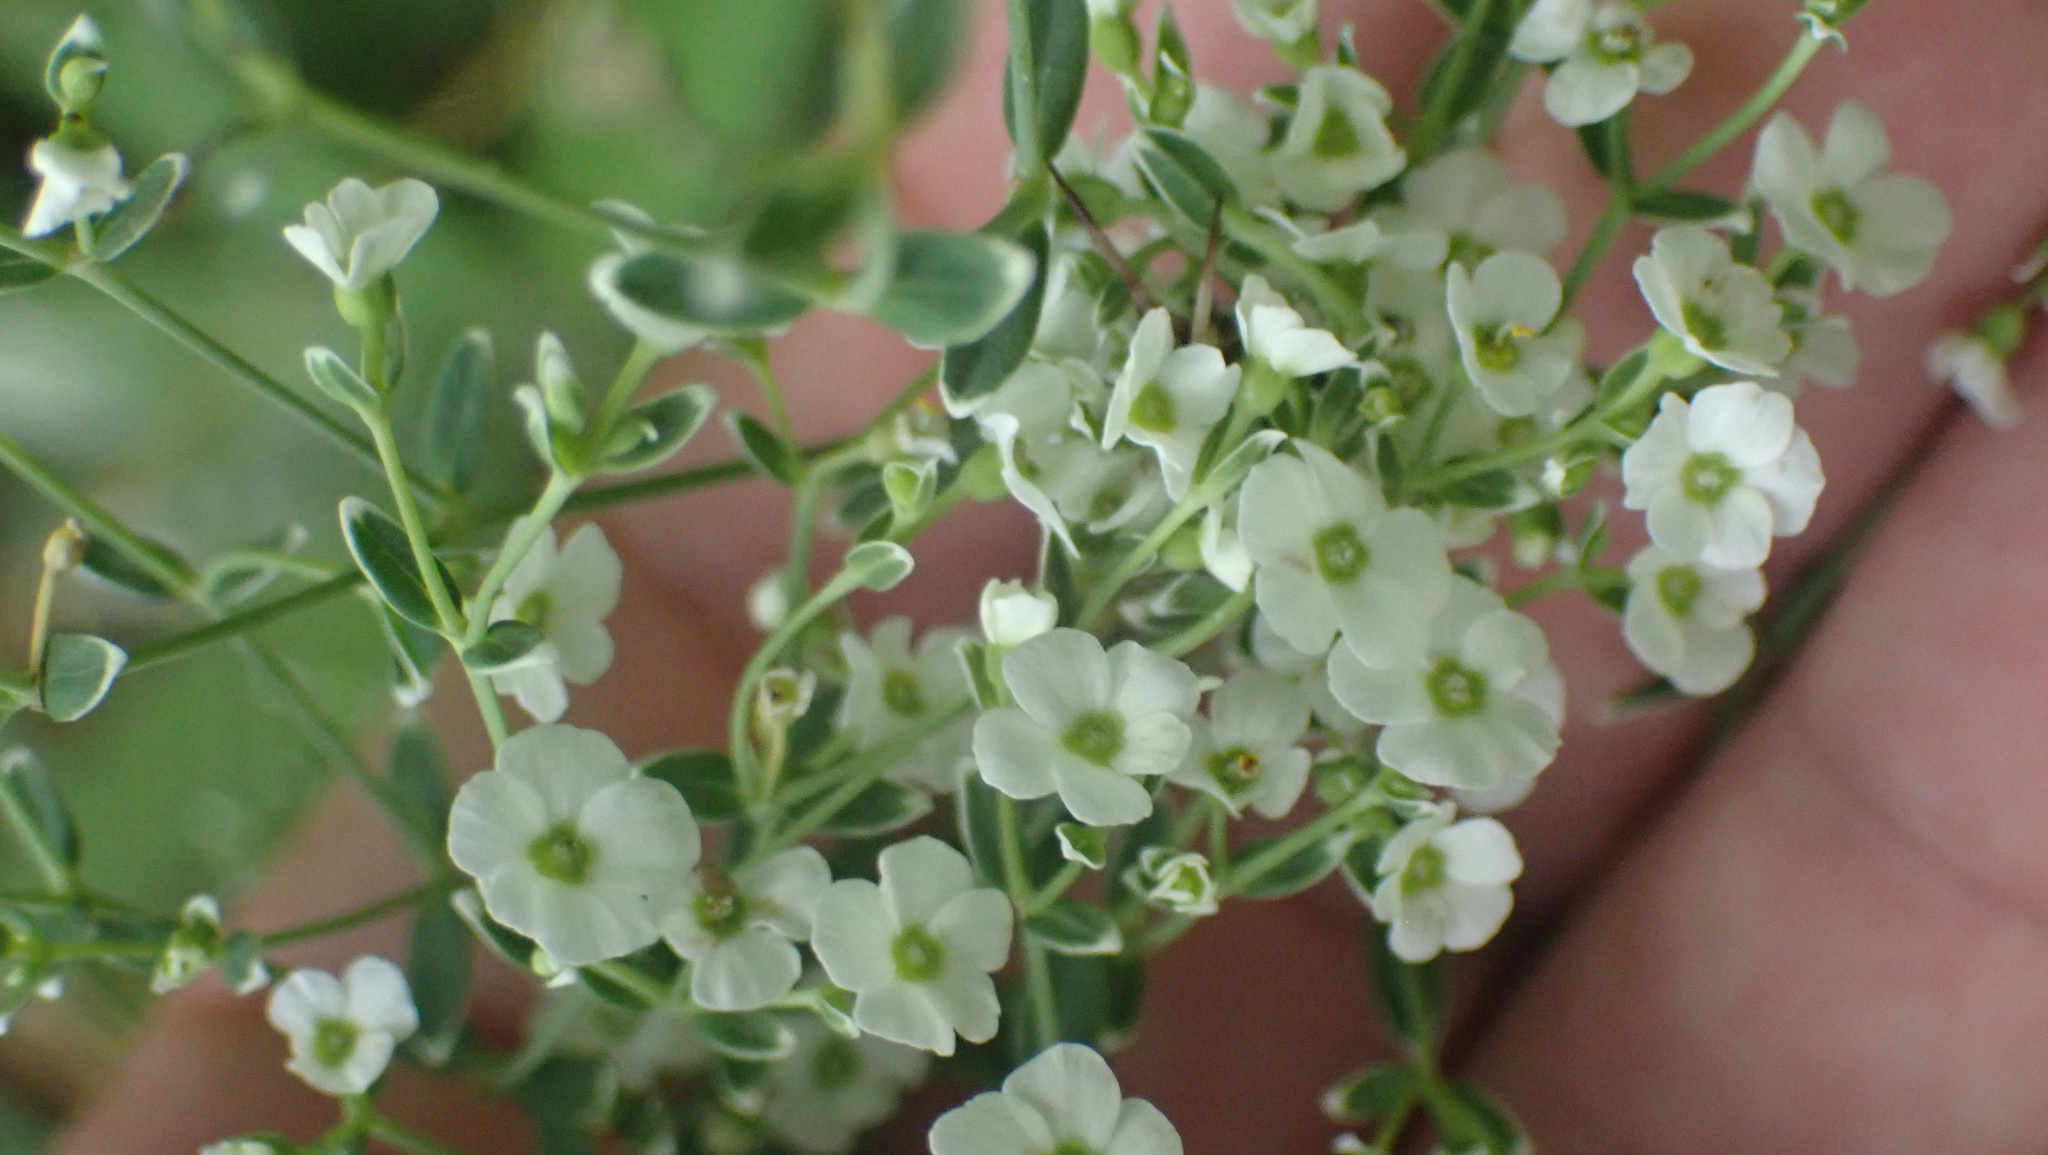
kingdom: Plantae
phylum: Tracheophyta
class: Magnoliopsida
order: Malpighiales
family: Euphorbiaceae
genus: Euphorbia
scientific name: Euphorbia corollata
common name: Flowering spurge
